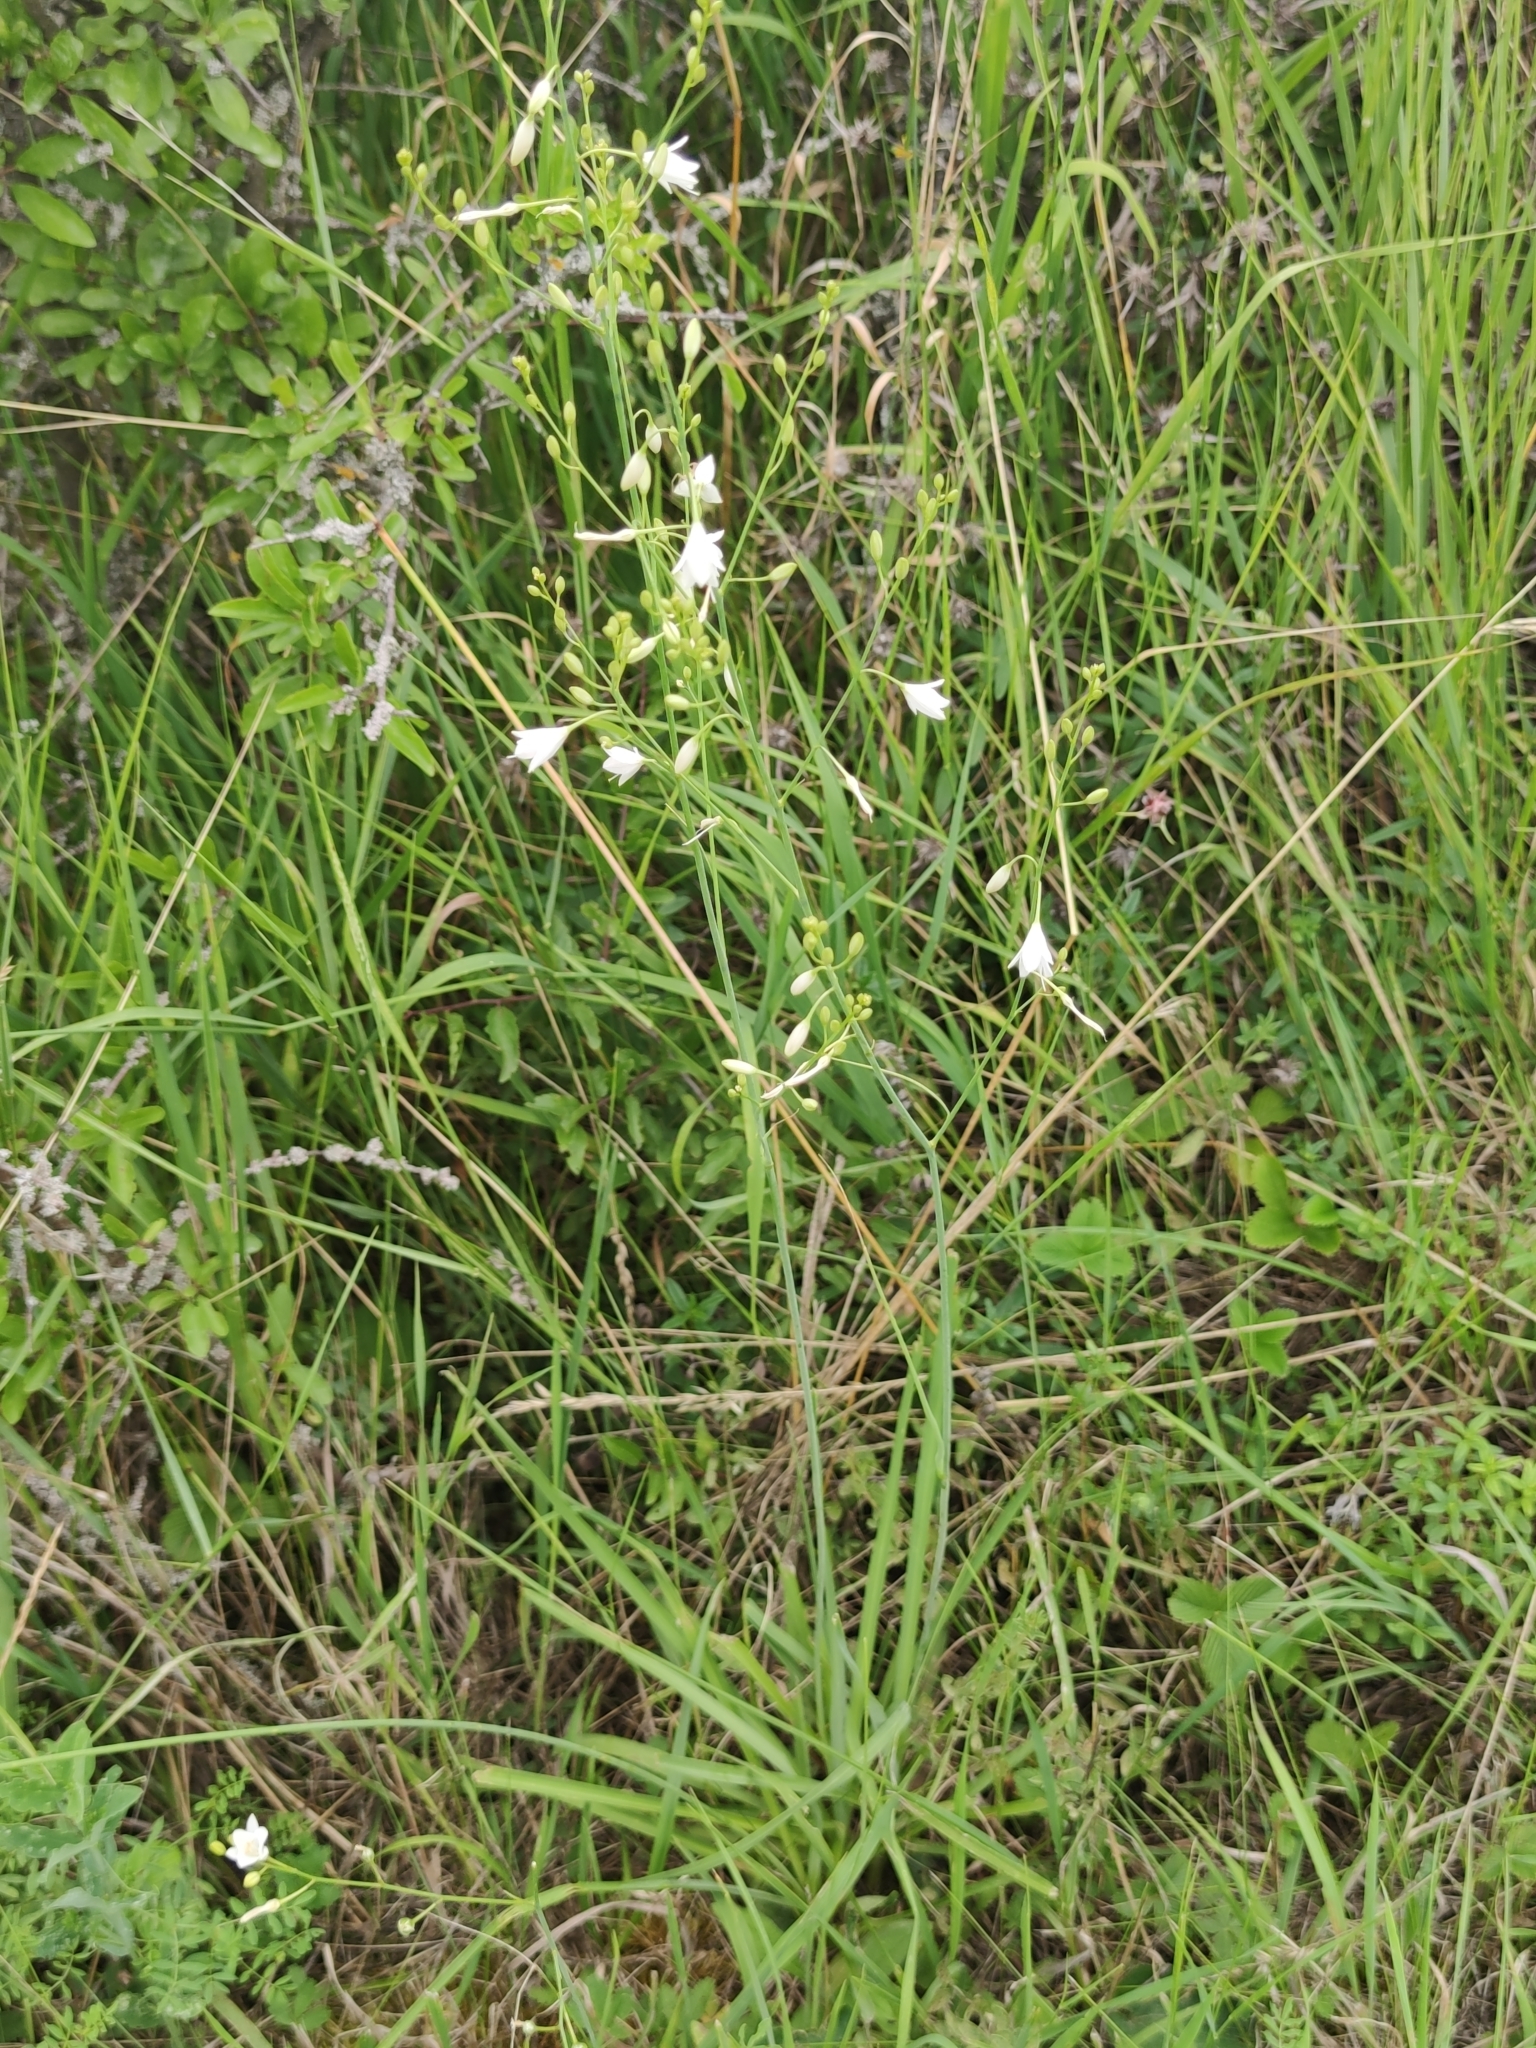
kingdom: Plantae
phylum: Tracheophyta
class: Liliopsida
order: Asparagales
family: Asparagaceae
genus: Anthericum
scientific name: Anthericum ramosum
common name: Branched st. bernard's-lily
